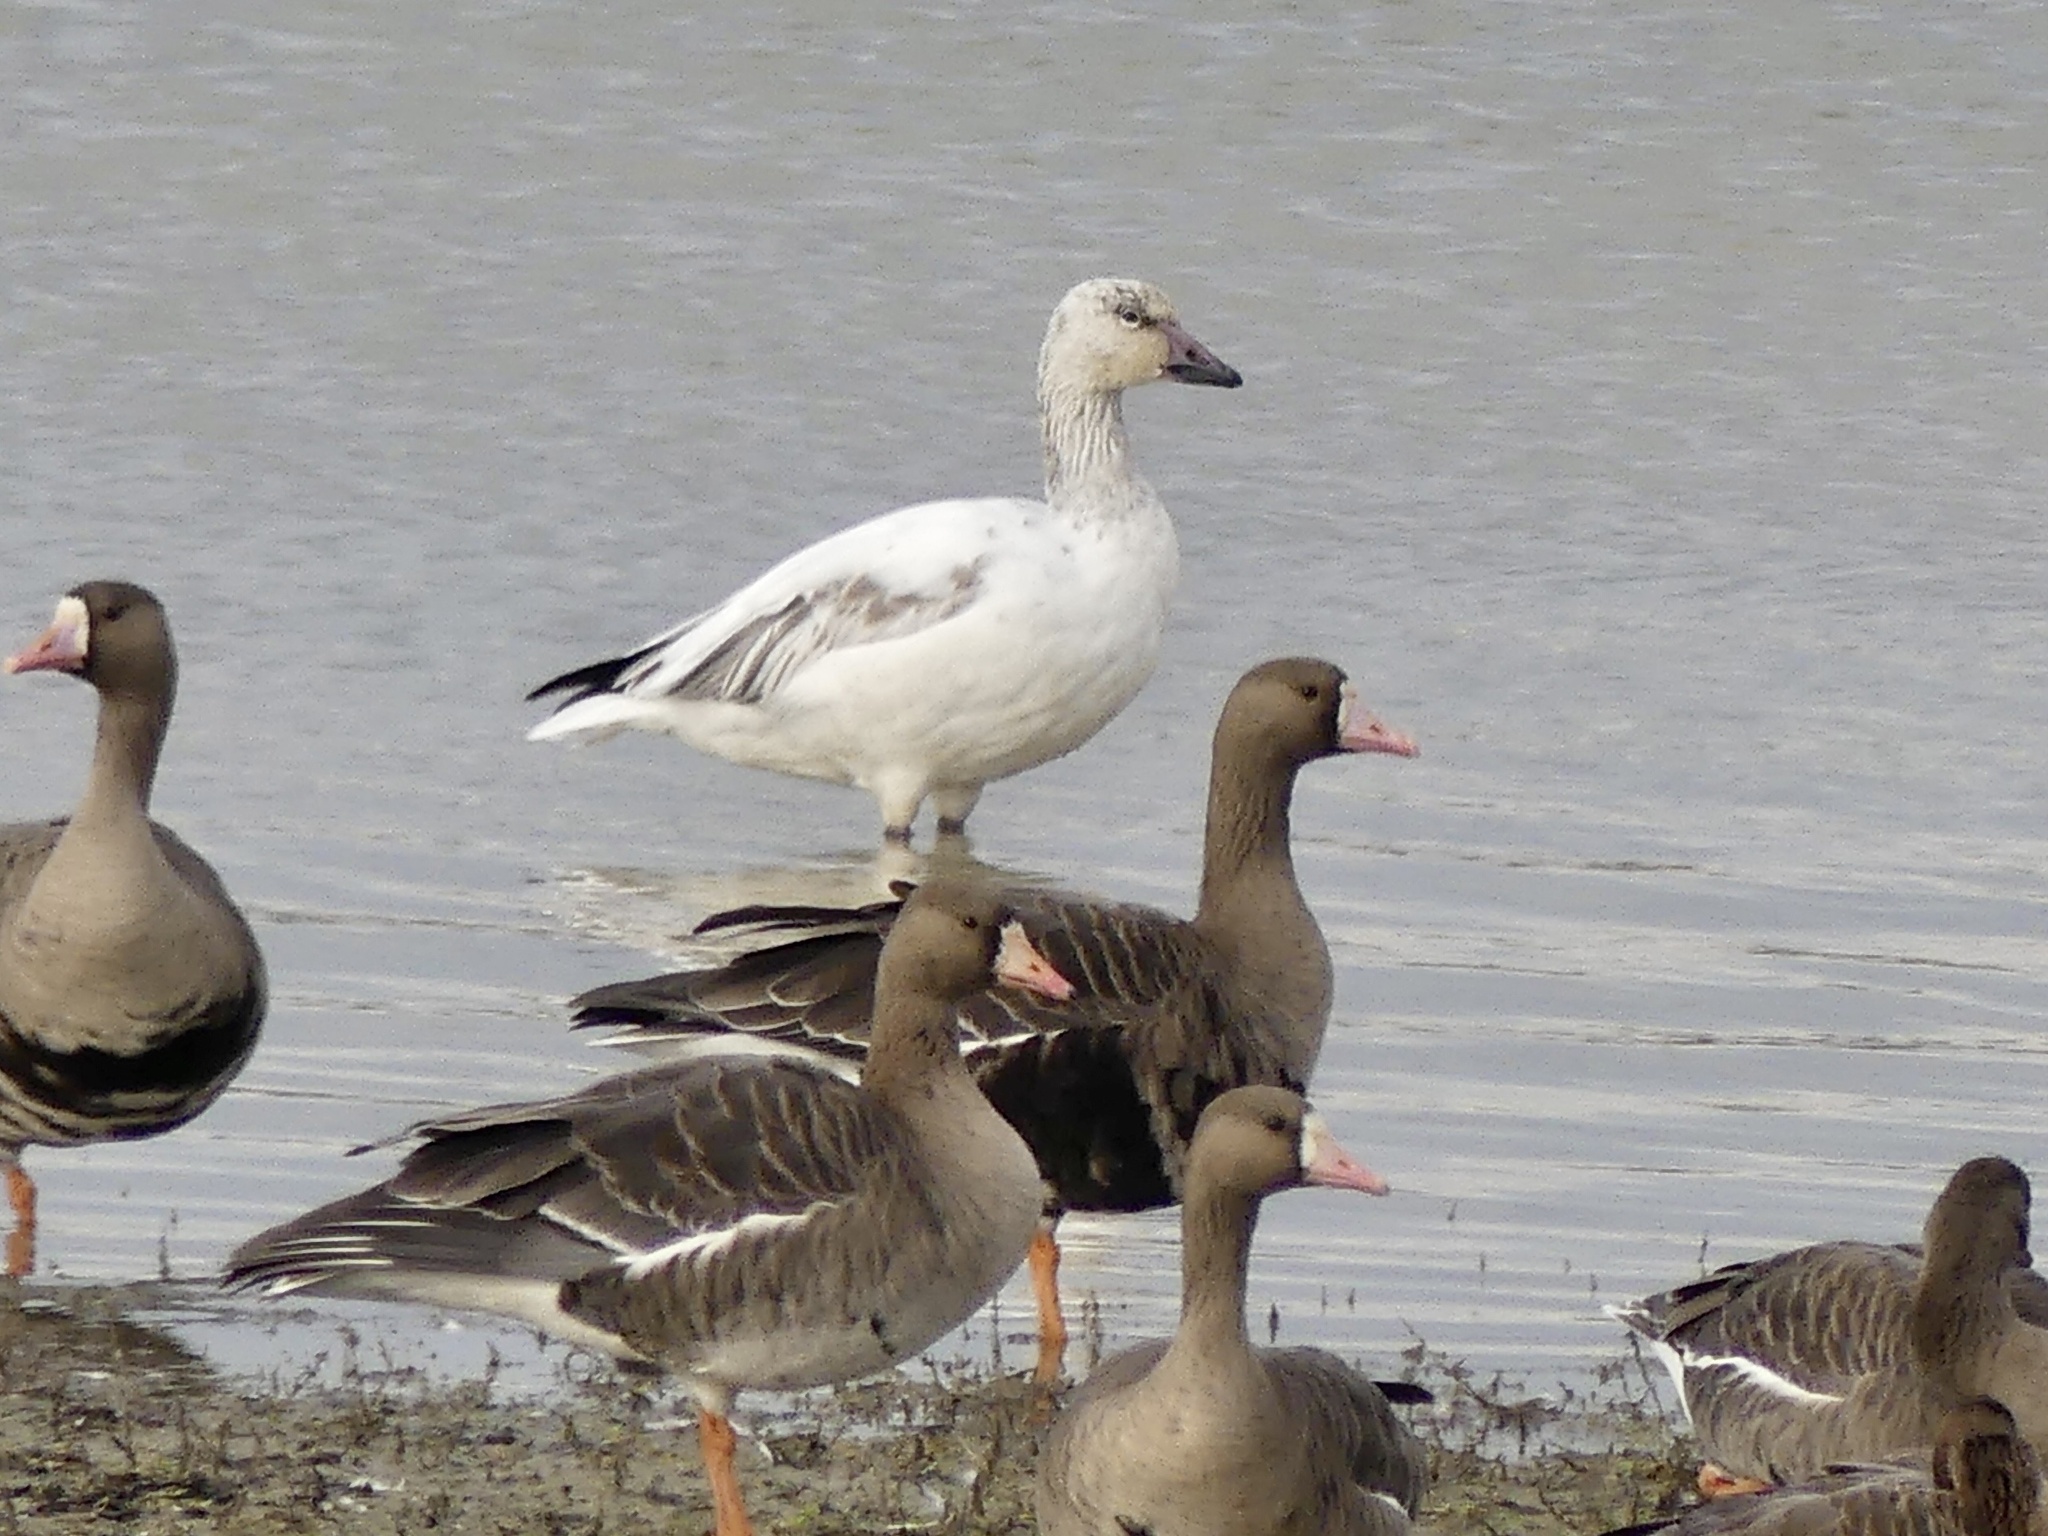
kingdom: Animalia
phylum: Chordata
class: Aves
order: Anseriformes
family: Anatidae
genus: Anser
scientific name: Anser caerulescens
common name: Snow goose
